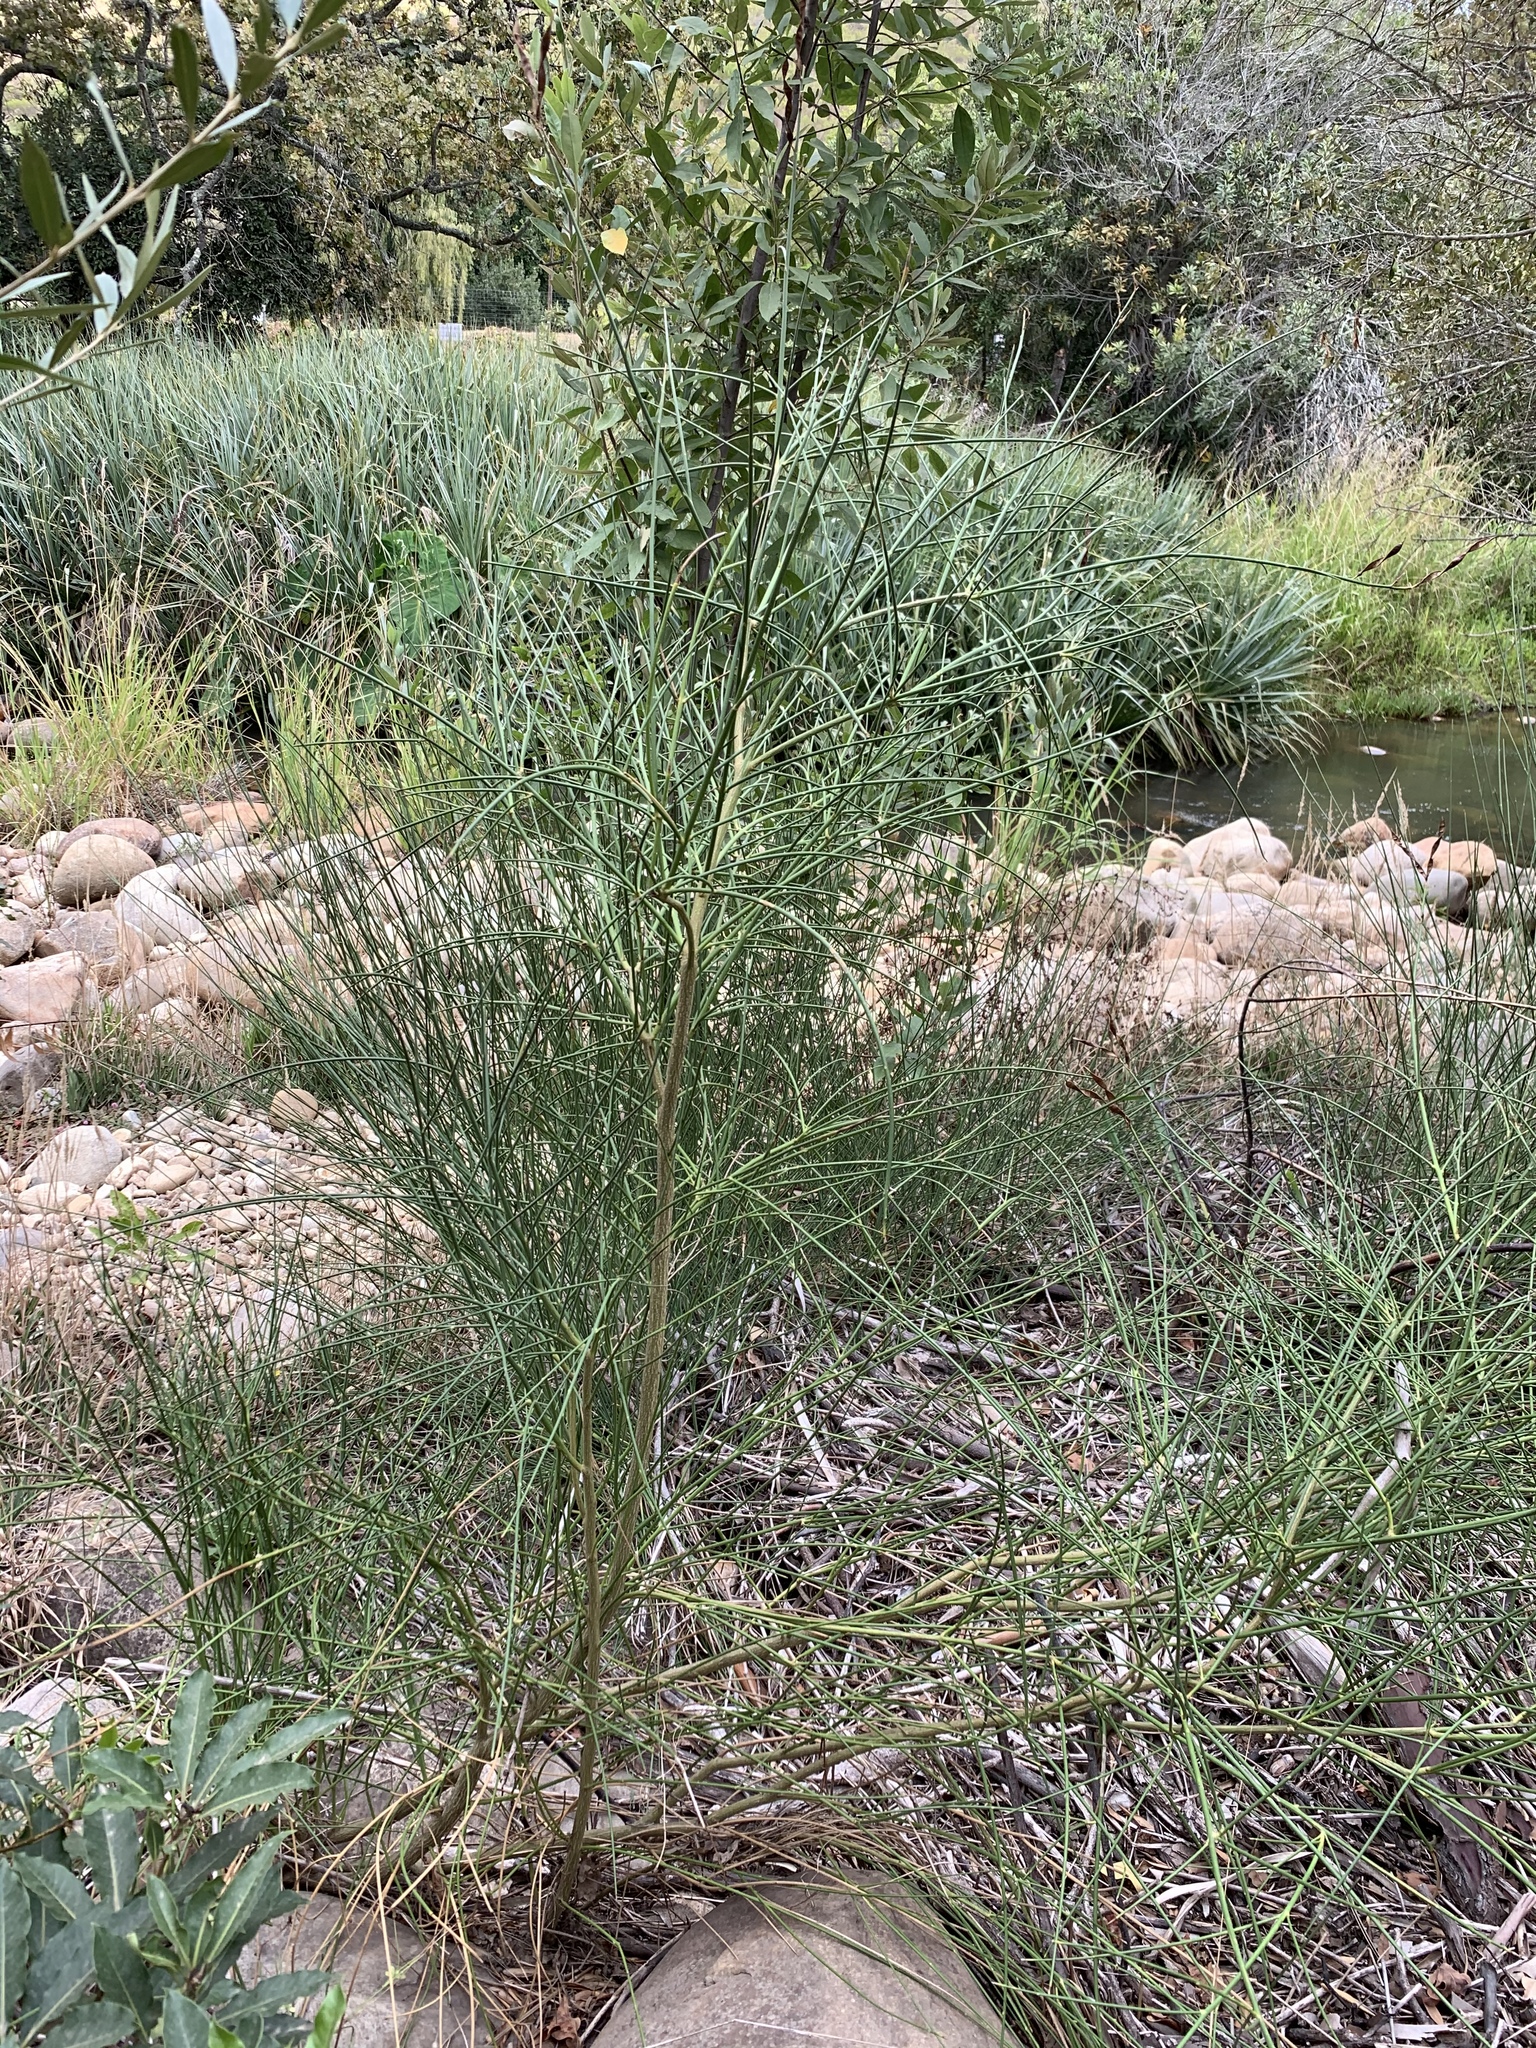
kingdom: Plantae
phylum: Tracheophyta
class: Magnoliopsida
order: Fabales
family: Fabaceae
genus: Spartium
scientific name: Spartium junceum
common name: Spanish broom
